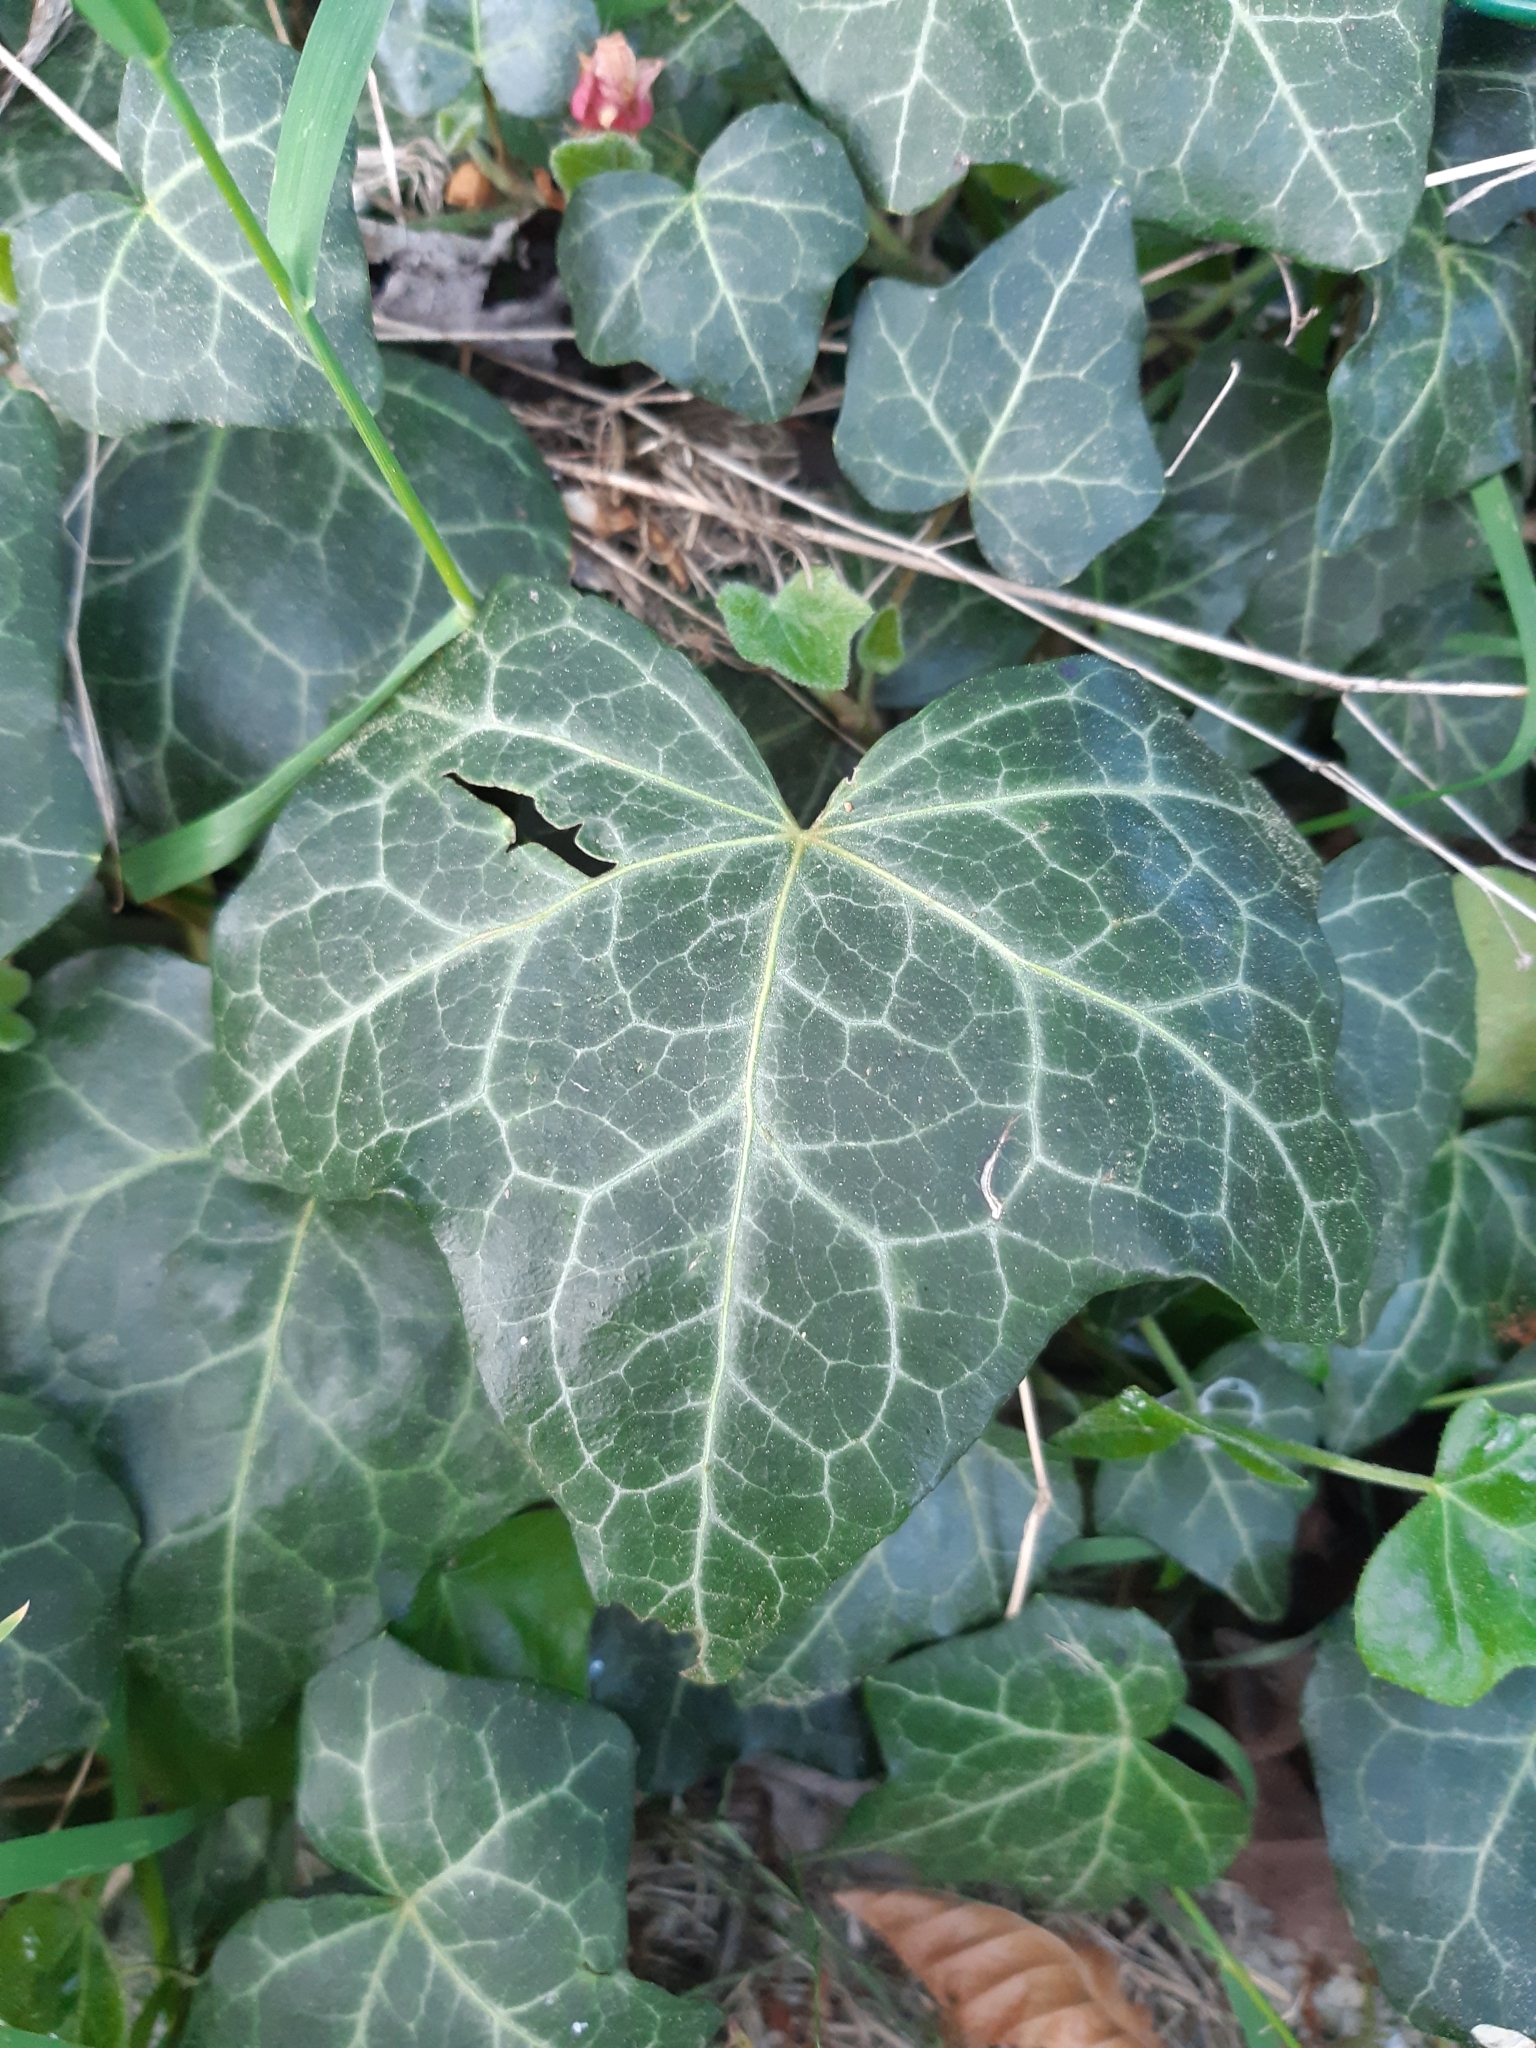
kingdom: Plantae
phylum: Tracheophyta
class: Magnoliopsida
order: Apiales
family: Araliaceae
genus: Hedera
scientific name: Hedera helix
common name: Ivy
